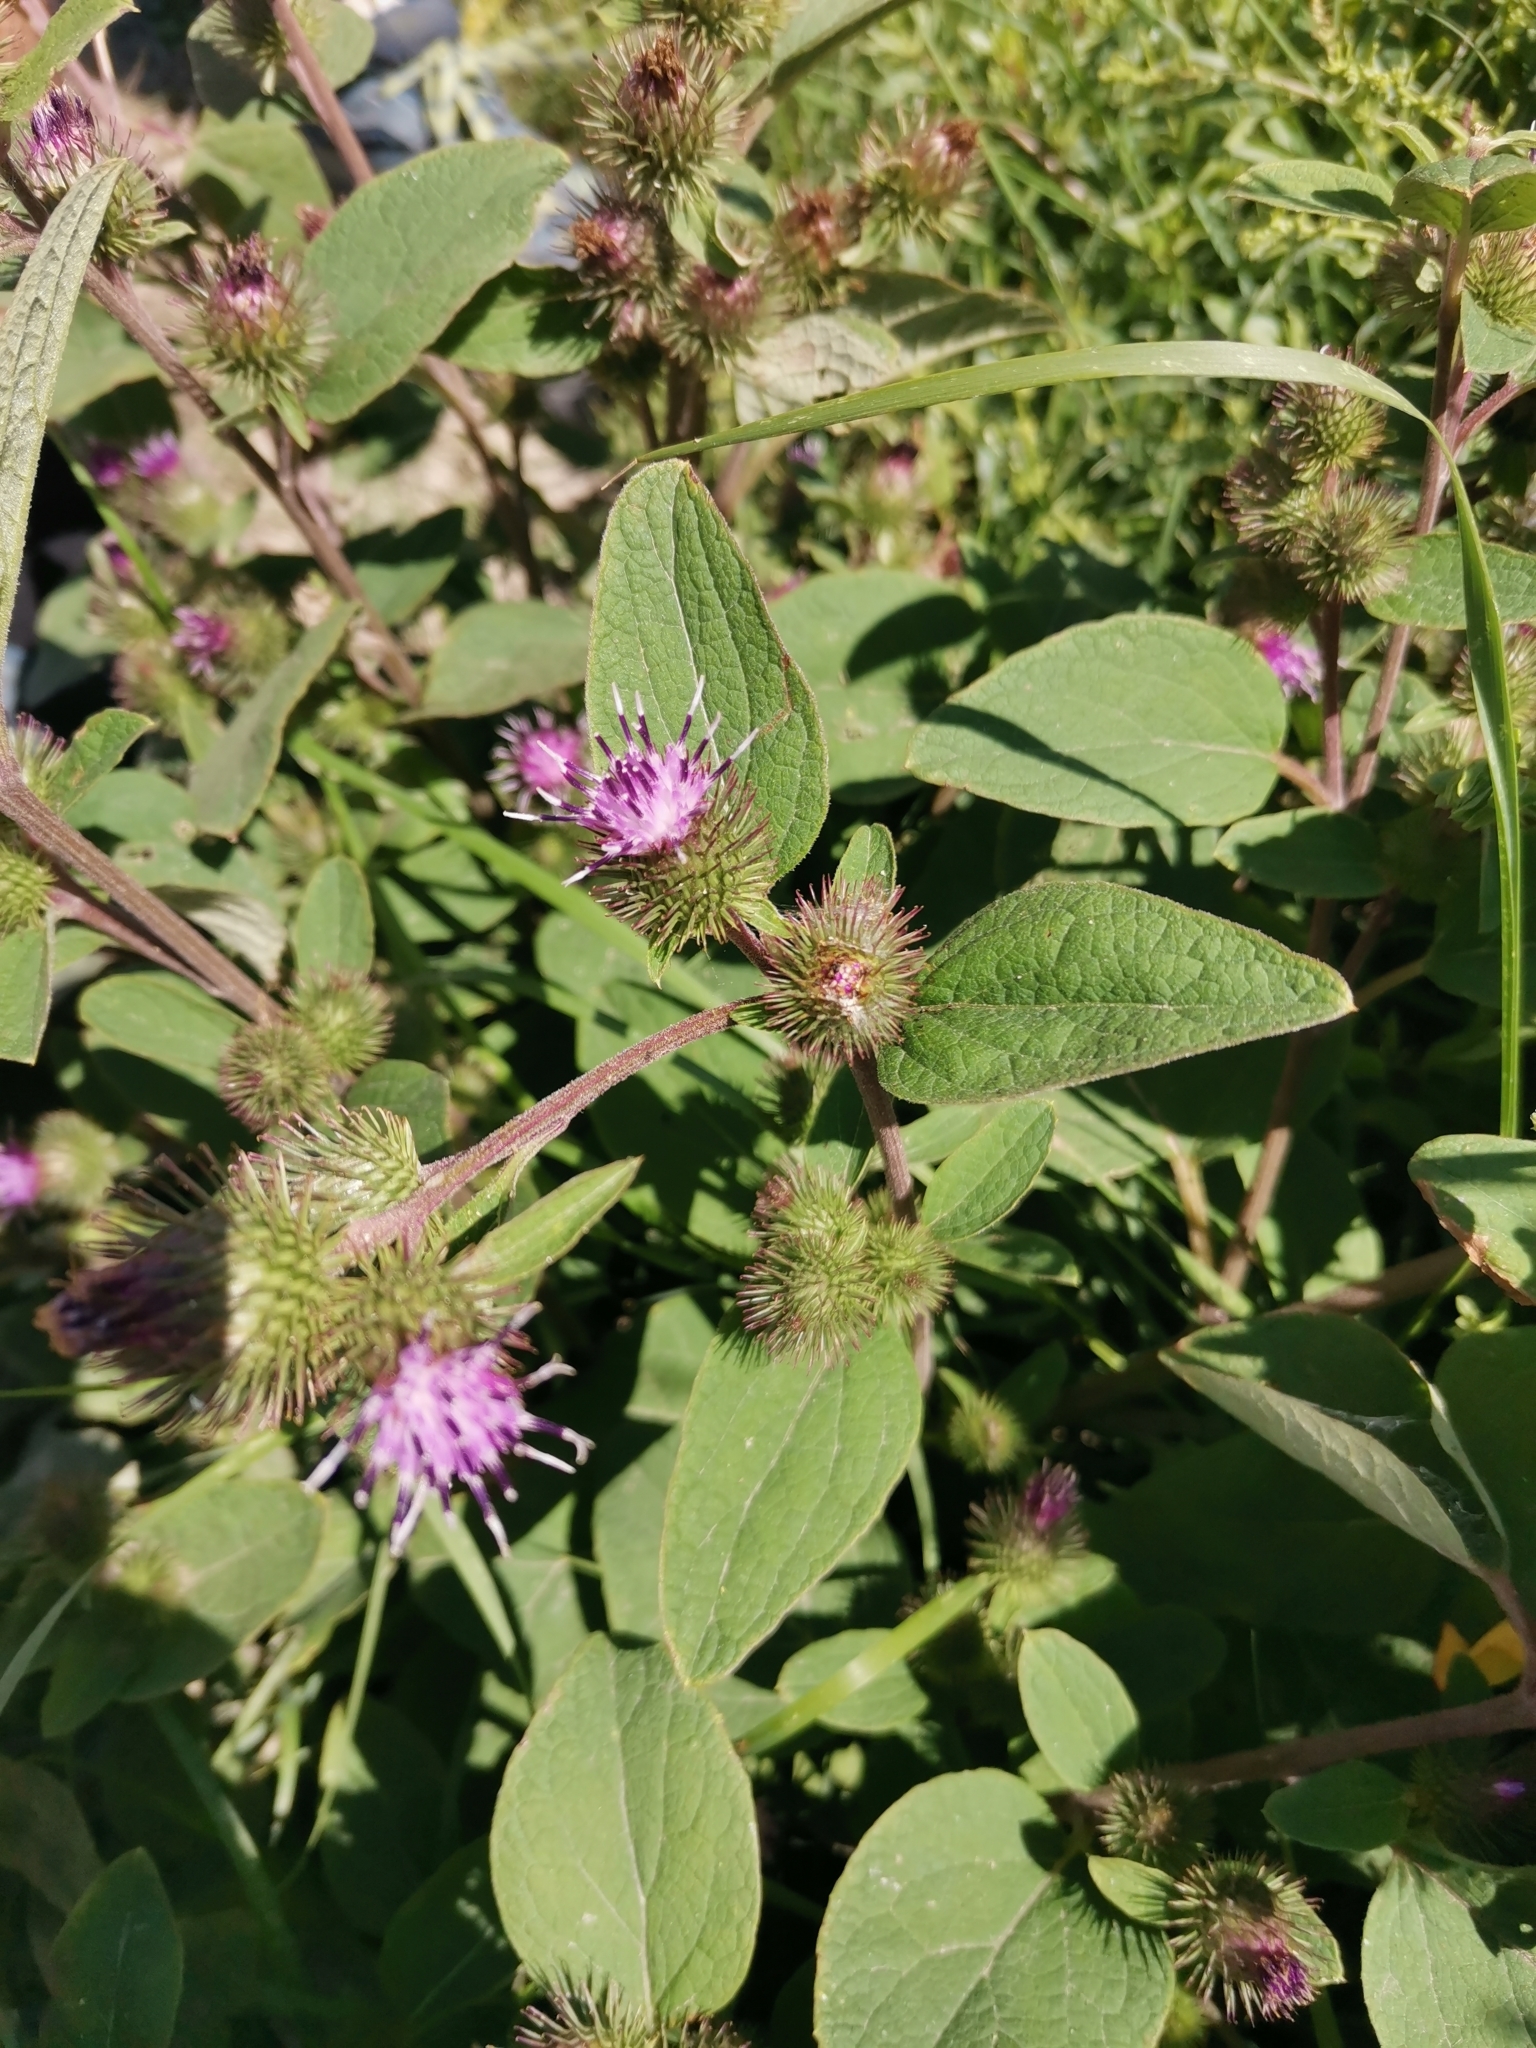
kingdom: Plantae
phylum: Tracheophyta
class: Magnoliopsida
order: Asterales
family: Asteraceae
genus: Arctium
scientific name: Arctium minus
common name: Lesser burdock
